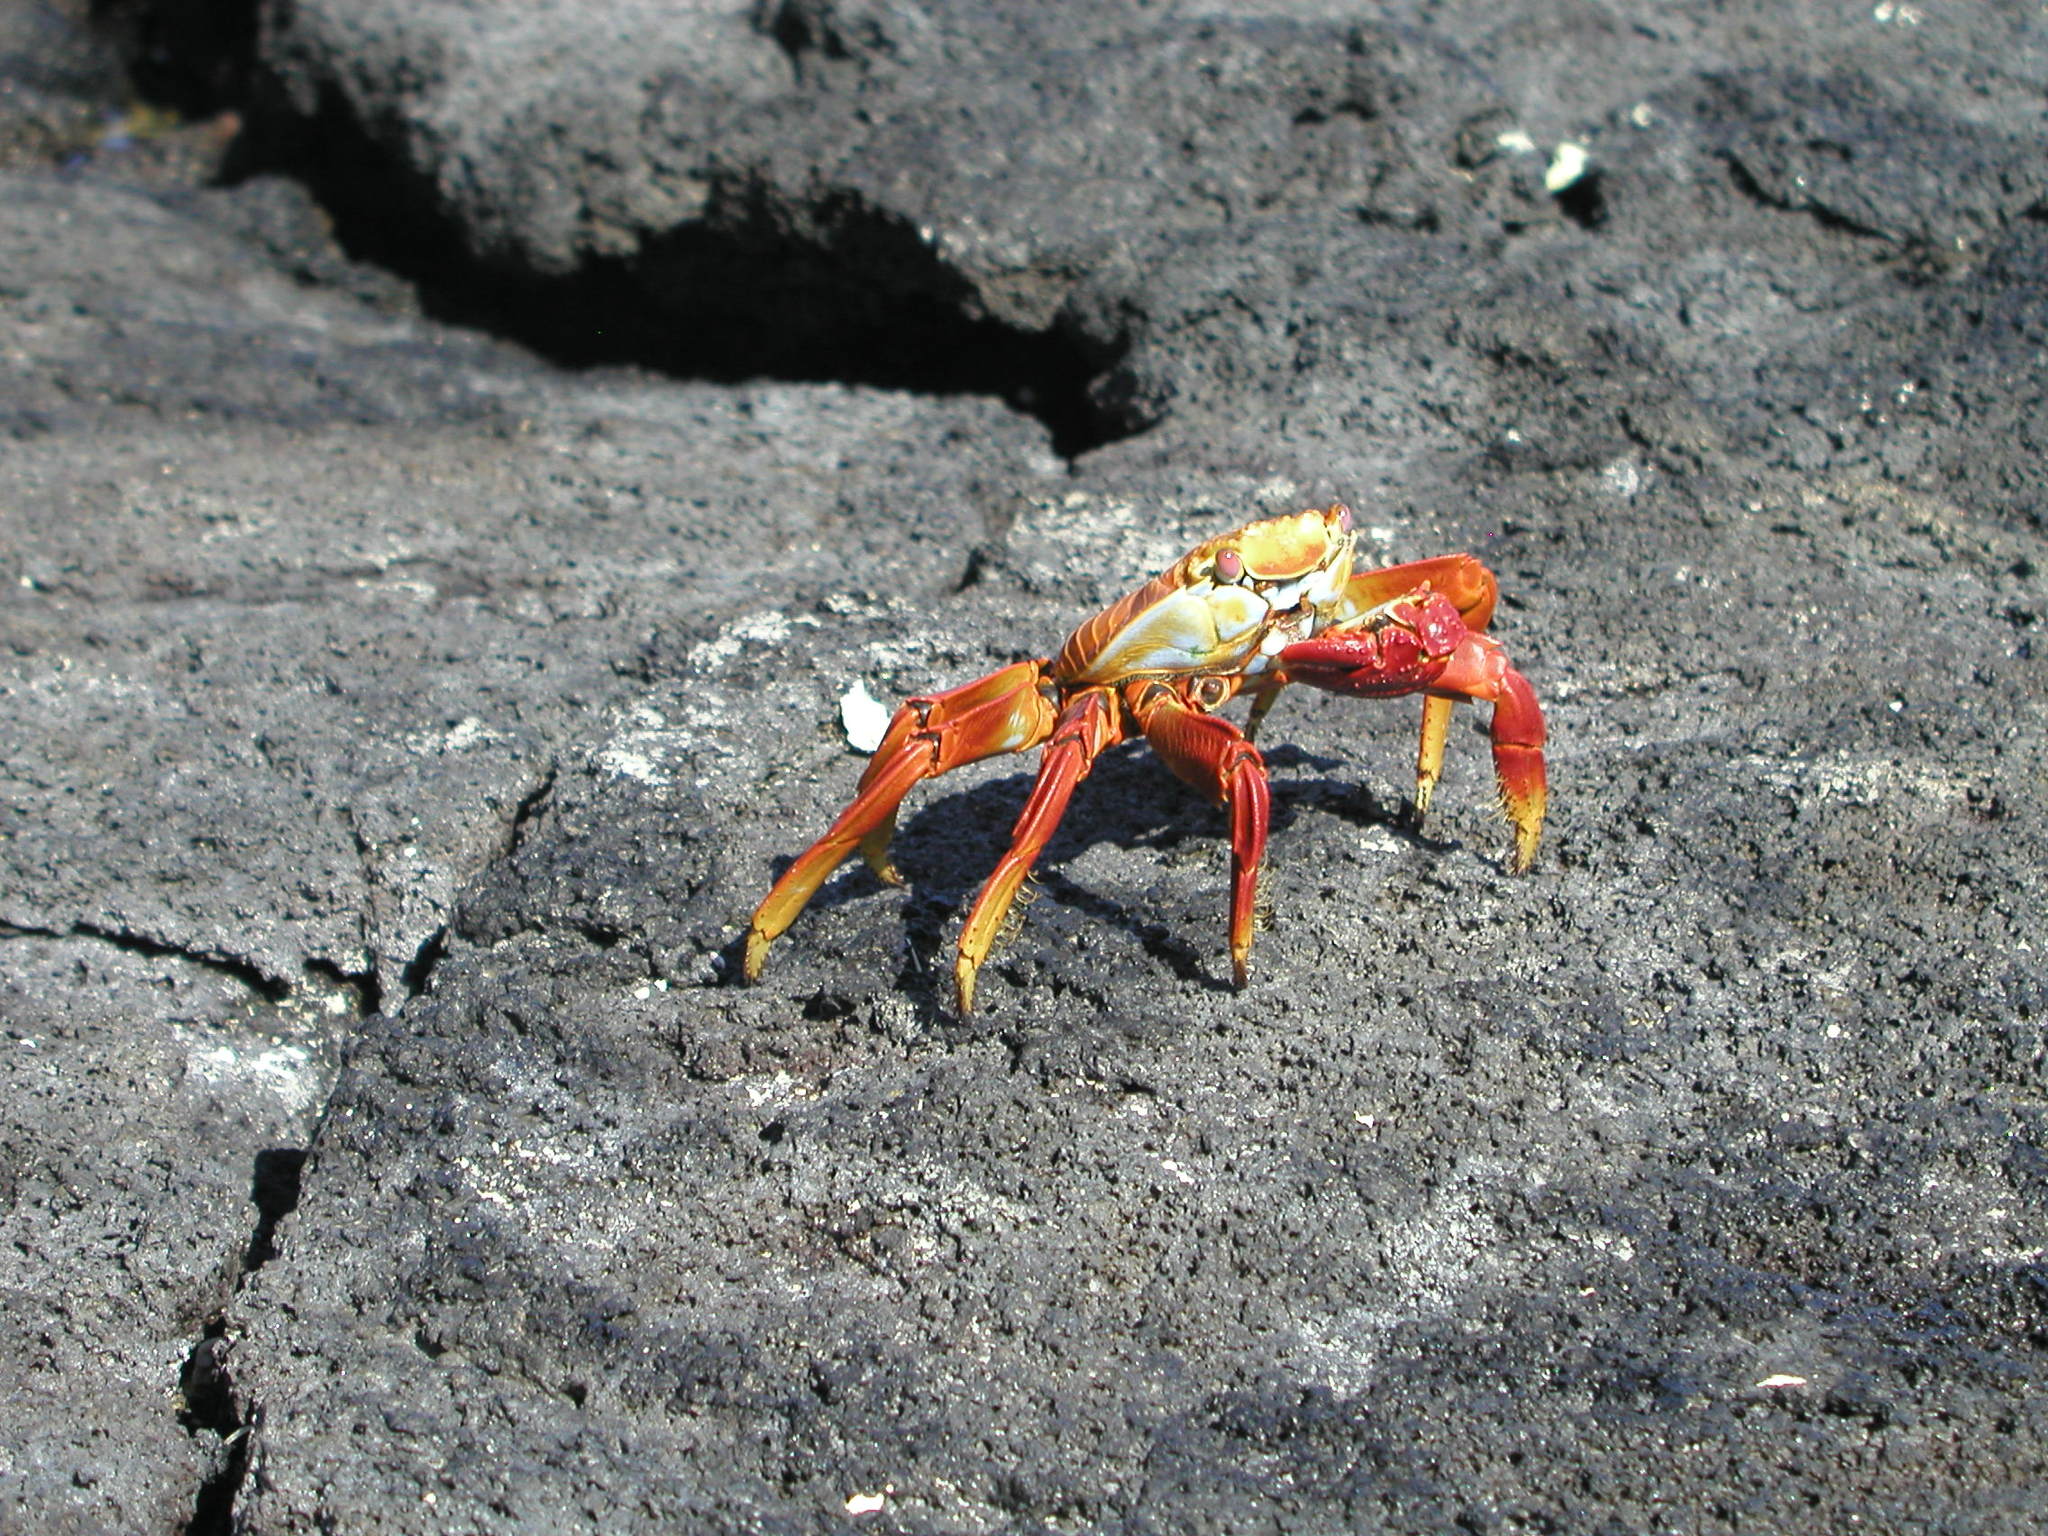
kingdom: Animalia
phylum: Arthropoda
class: Malacostraca
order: Decapoda
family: Grapsidae
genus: Grapsus
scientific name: Grapsus grapsus
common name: Sally lightfoot
